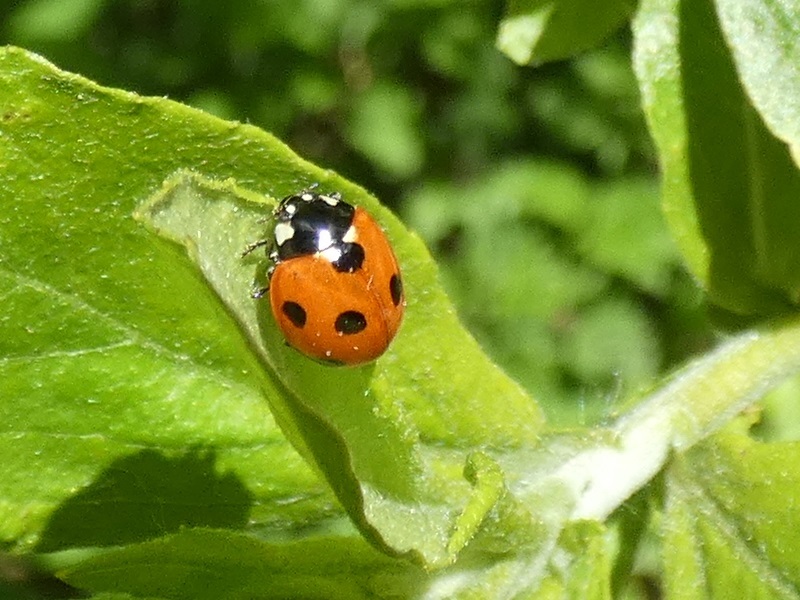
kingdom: Animalia
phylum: Arthropoda
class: Insecta
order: Coleoptera
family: Coccinellidae
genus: Coccinella
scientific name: Coccinella septempunctata
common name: Sevenspotted lady beetle
